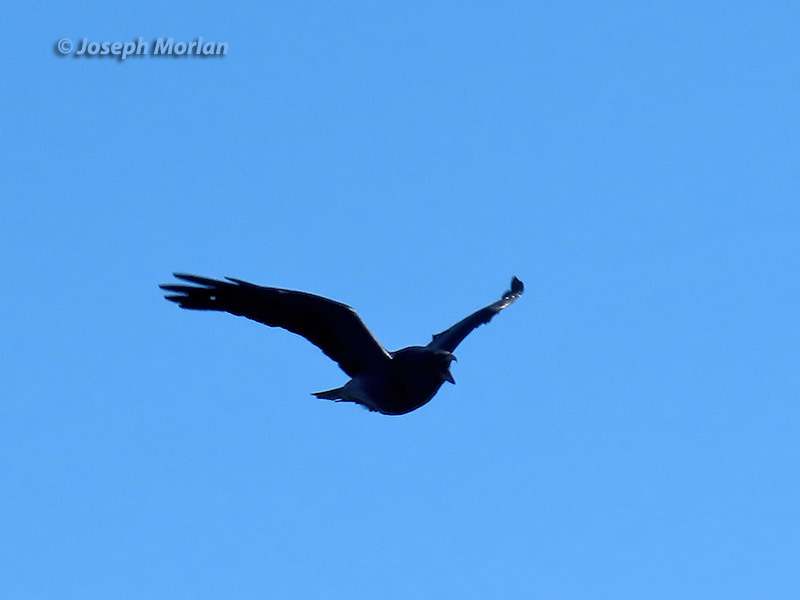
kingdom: Animalia
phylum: Chordata
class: Aves
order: Passeriformes
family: Corvidae
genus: Corvus
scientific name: Corvus corax
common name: Common raven
